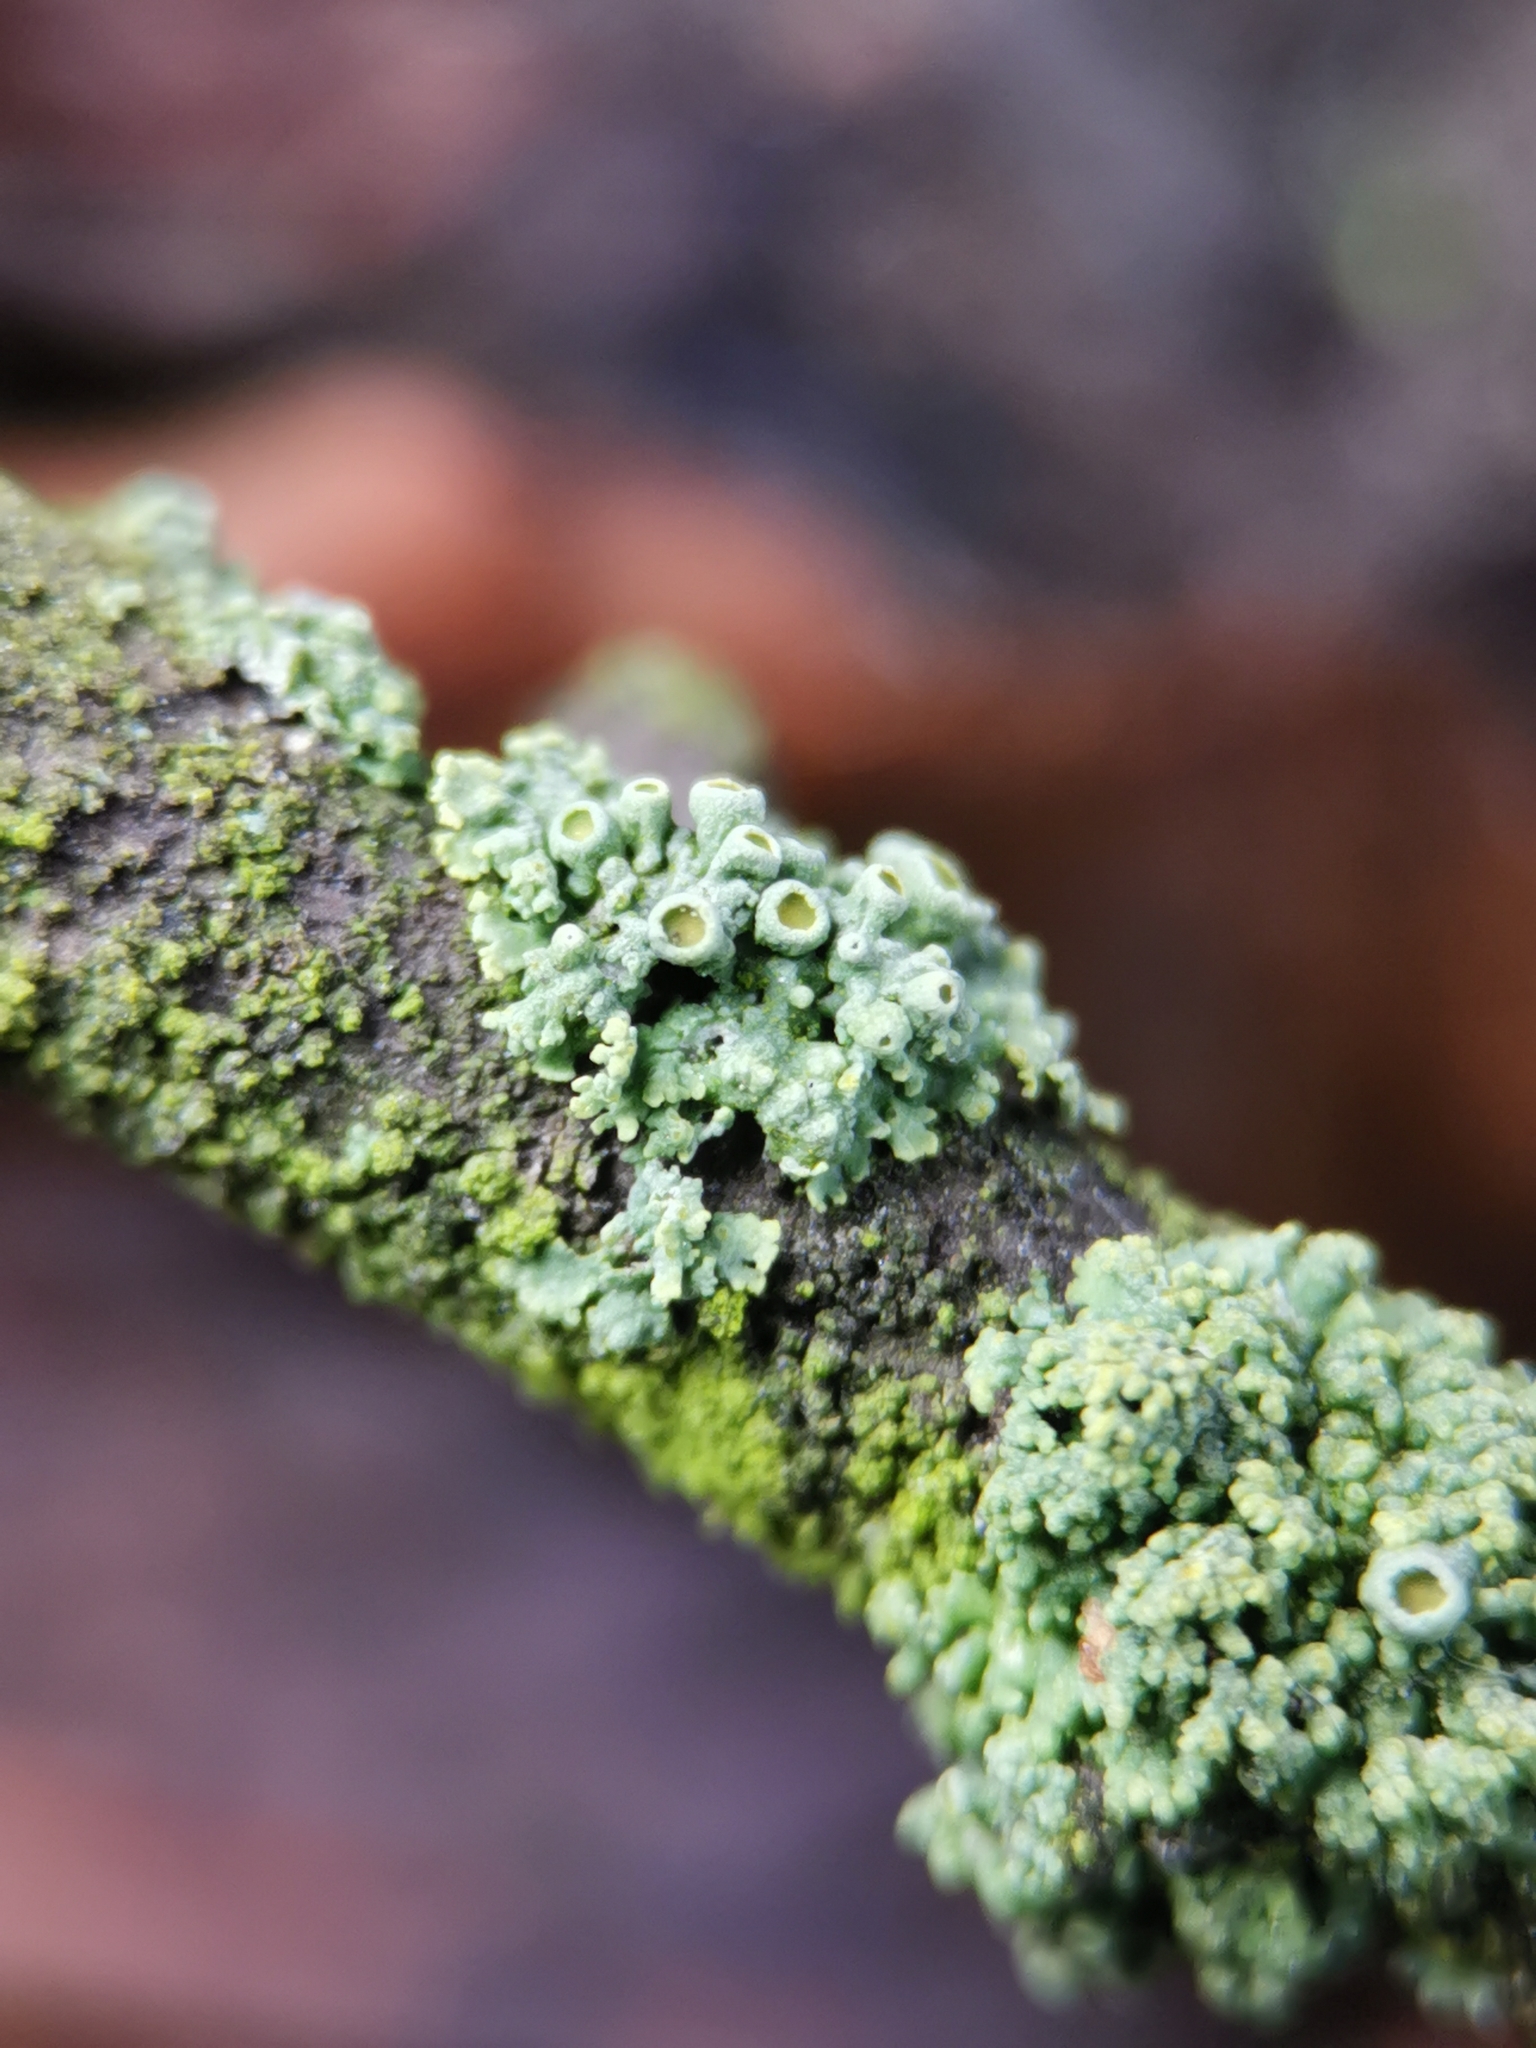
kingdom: Fungi
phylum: Ascomycota
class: Lecanoromycetes
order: Teloschistales
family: Teloschistaceae
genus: Polycauliona
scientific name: Polycauliona polycarpa
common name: Pin-cushion sunburst lichen
